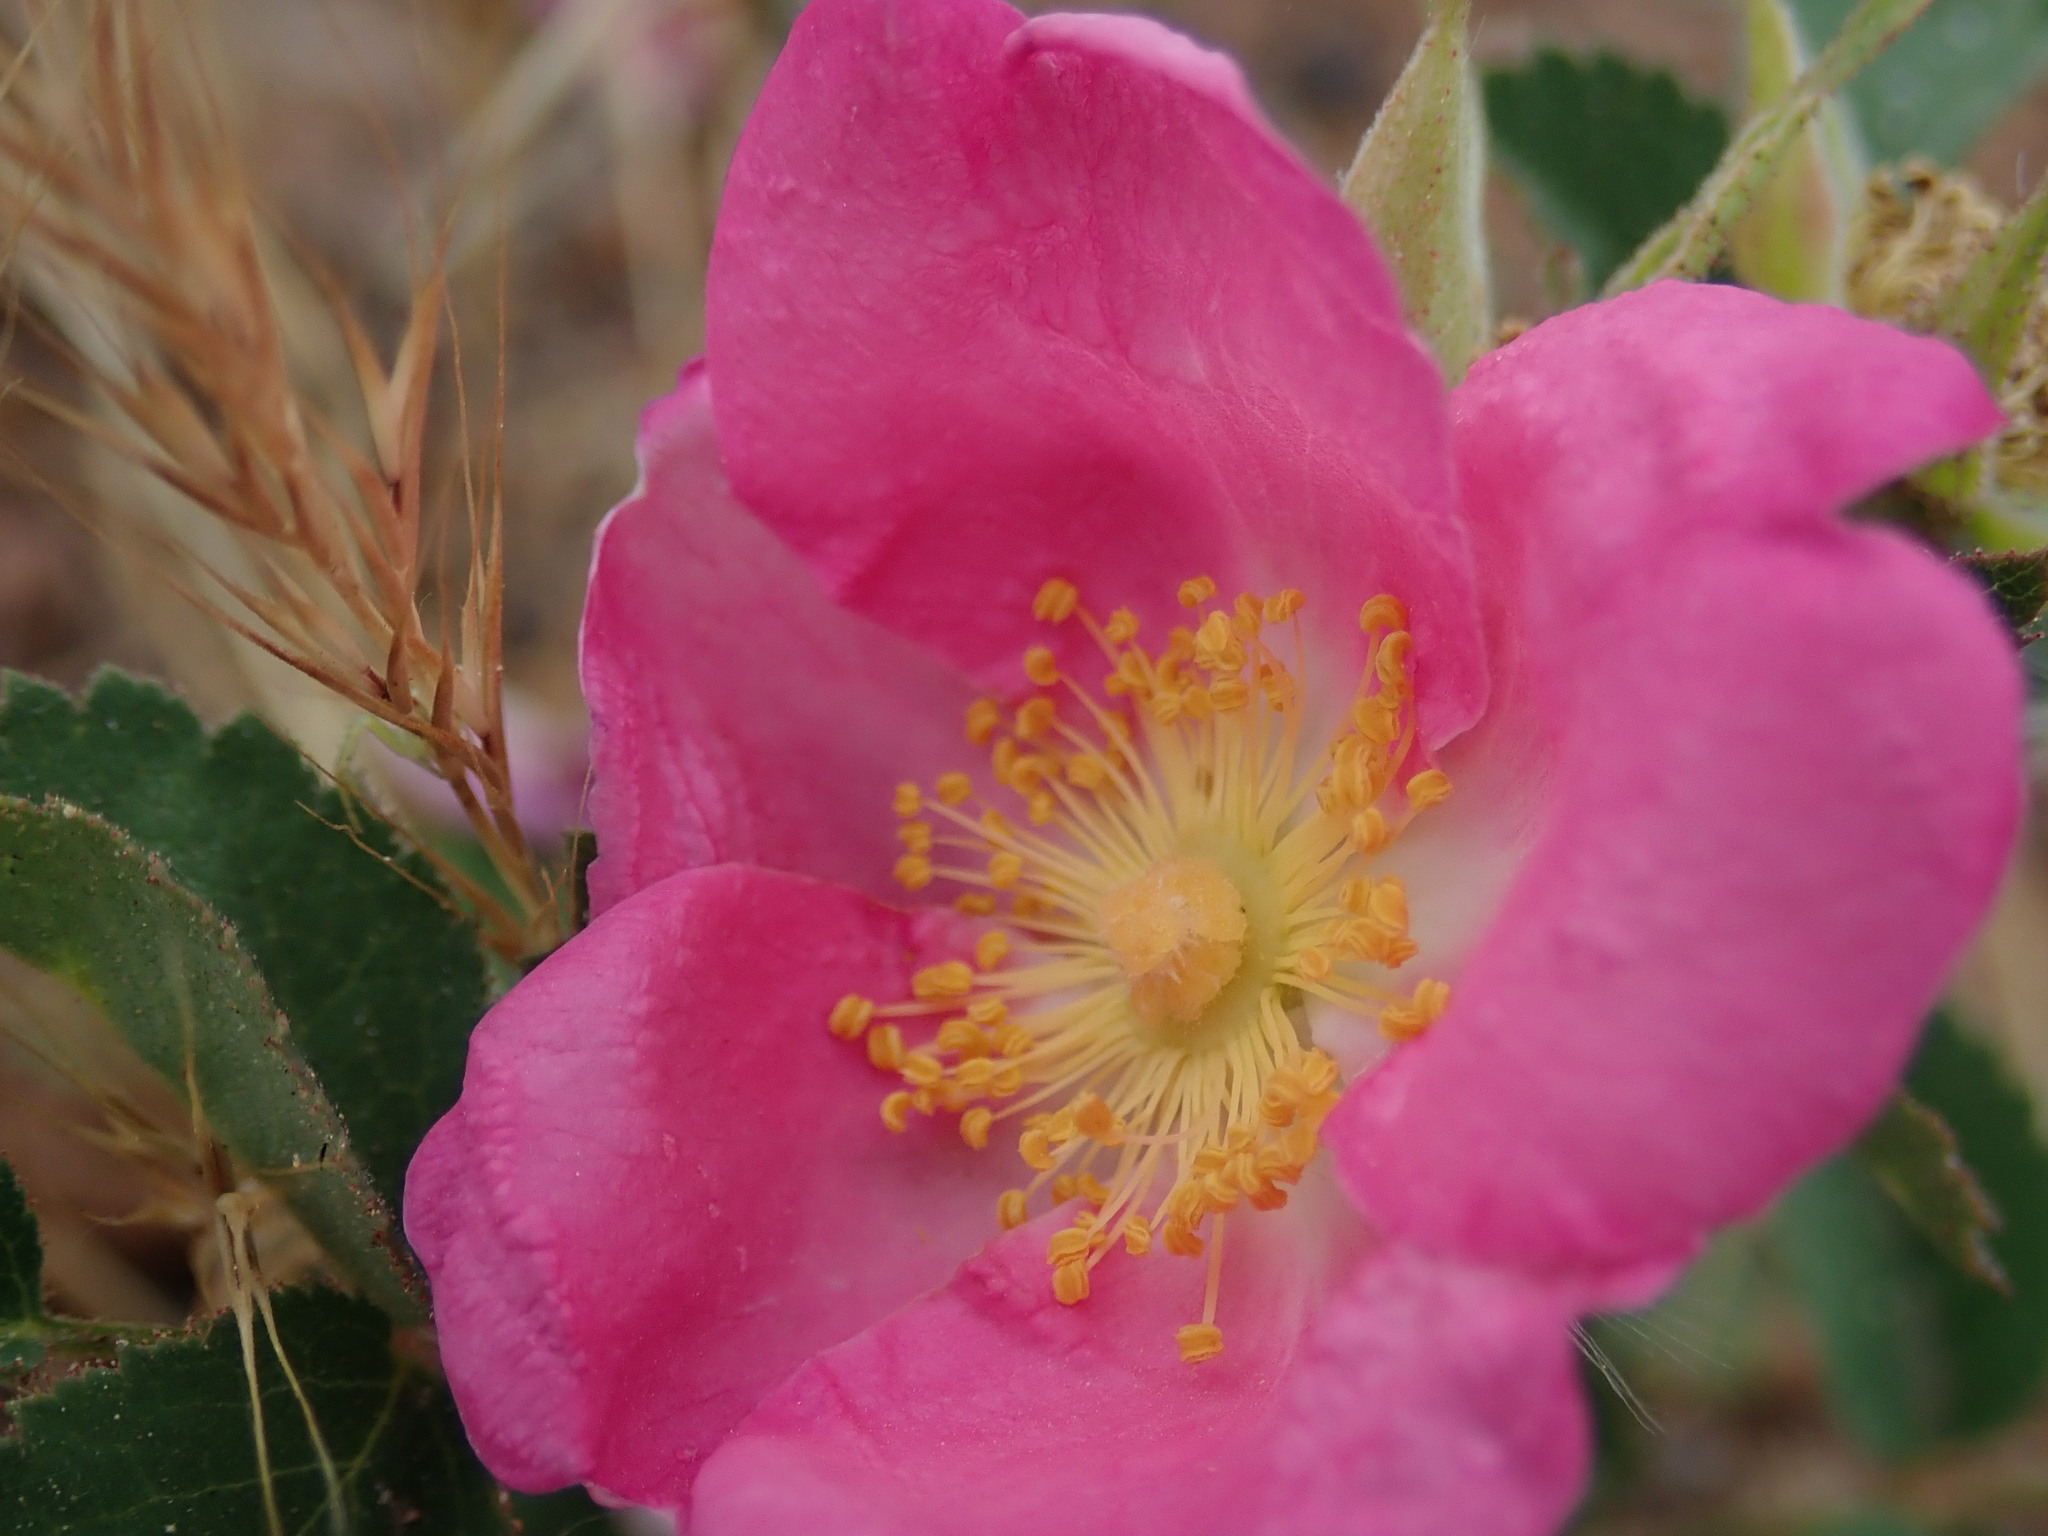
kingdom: Plantae
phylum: Tracheophyta
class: Magnoliopsida
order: Rosales
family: Rosaceae
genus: Rosa
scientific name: Rosa spithamea
